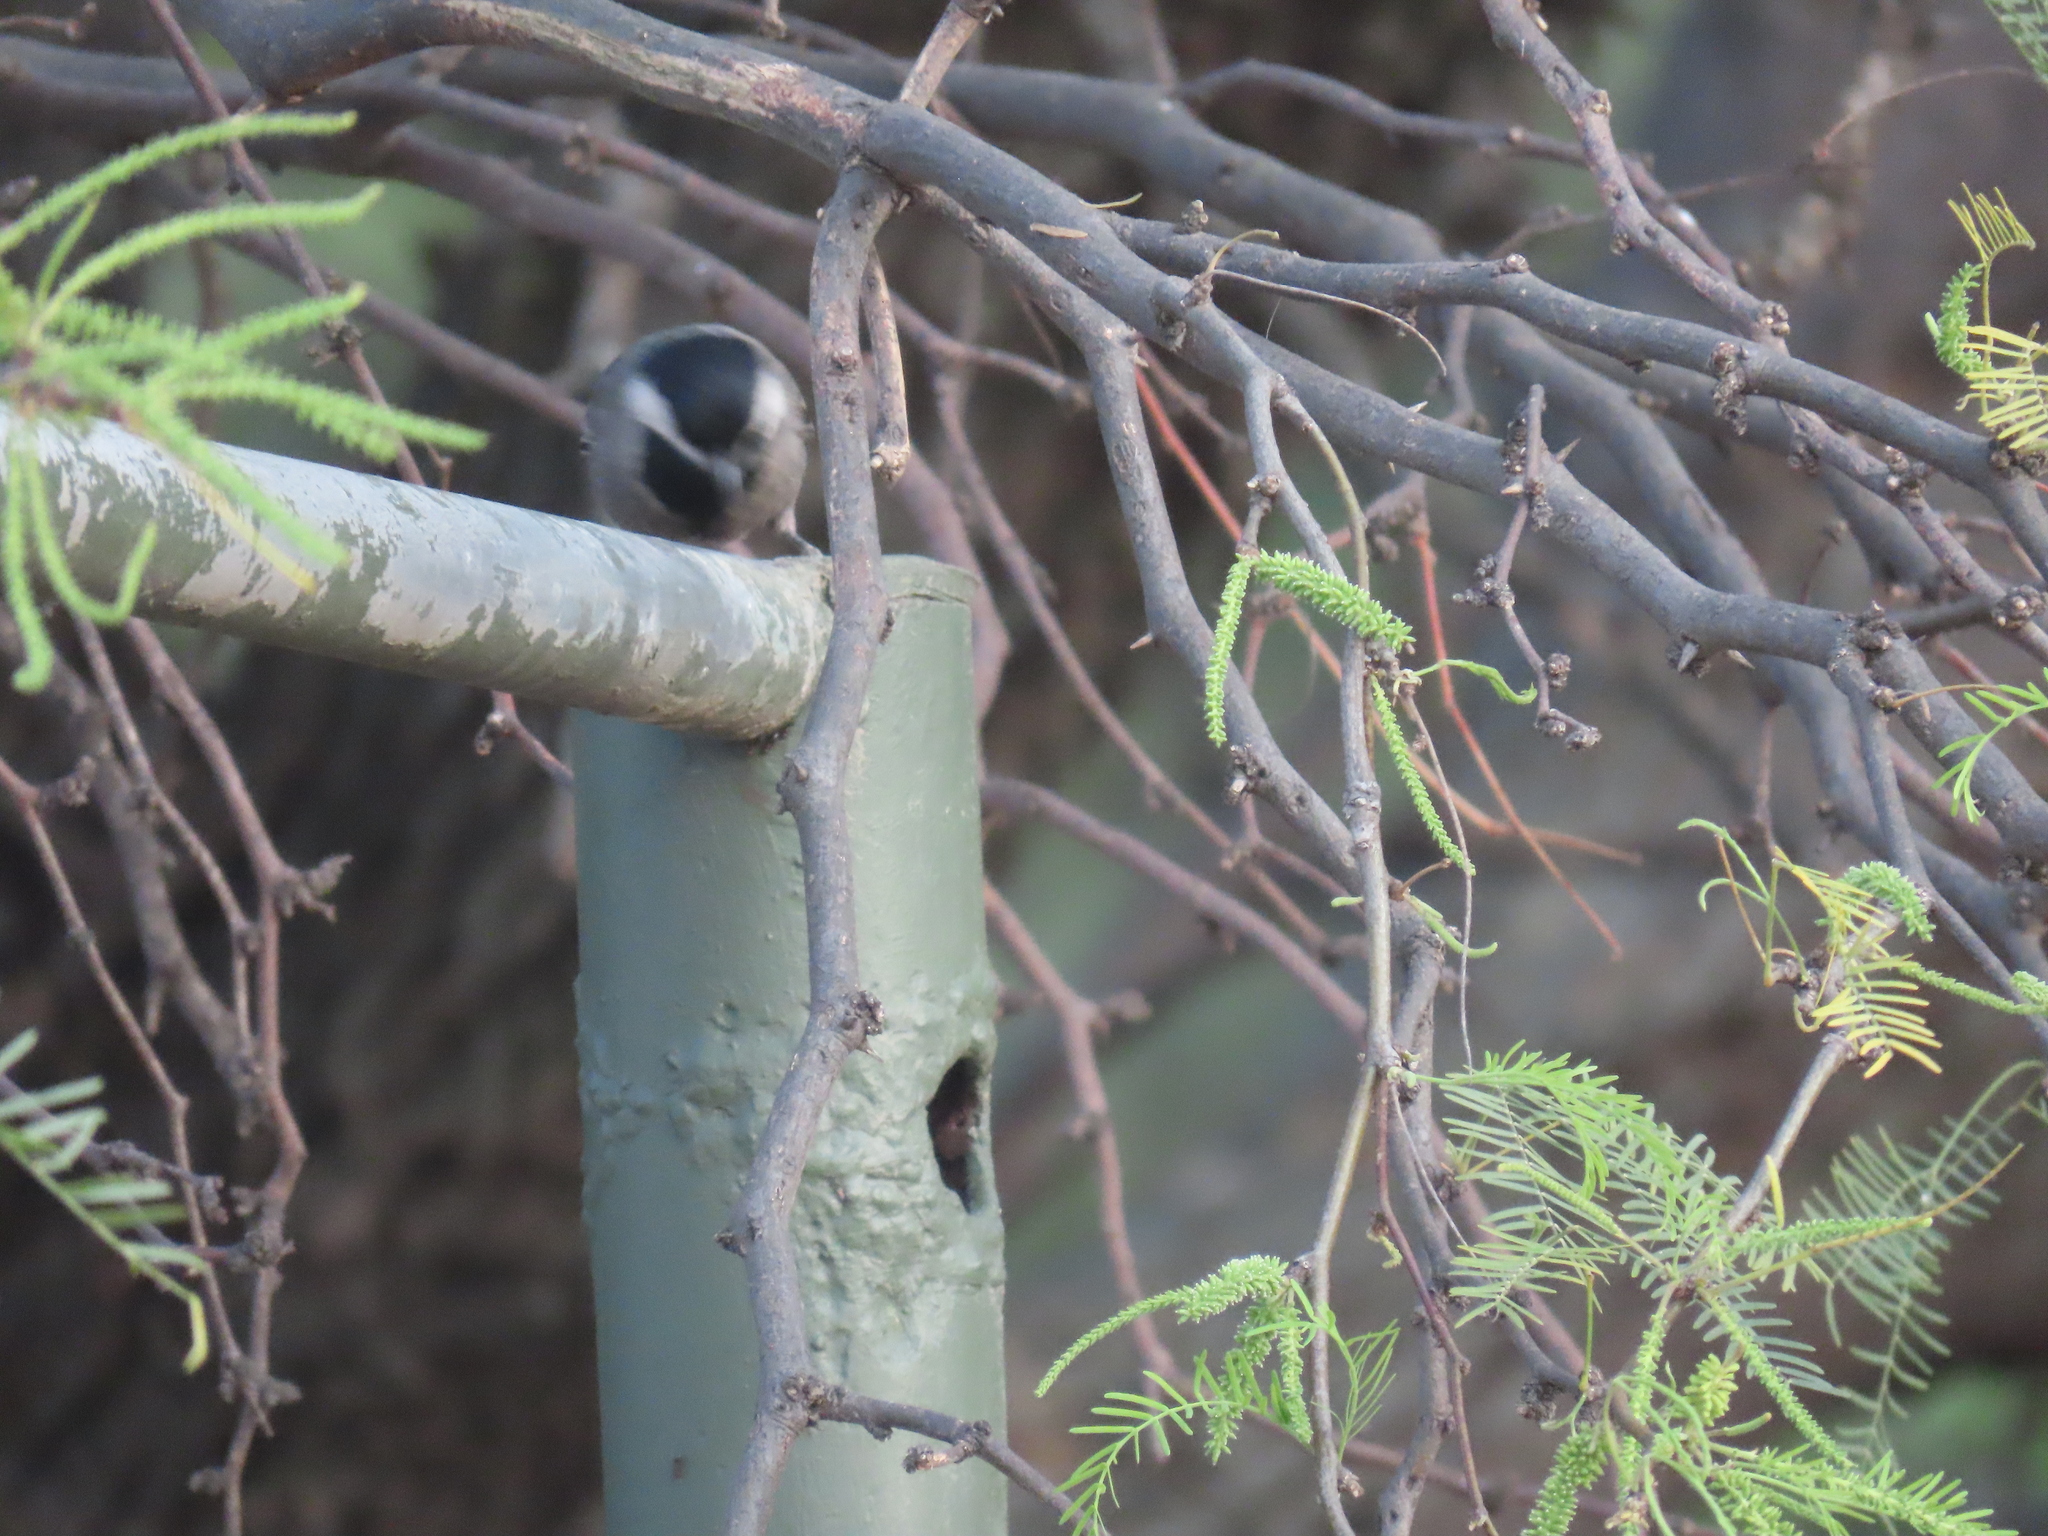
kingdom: Animalia
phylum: Chordata
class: Aves
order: Passeriformes
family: Paridae
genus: Parus
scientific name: Parus cinerascens
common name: Ashy tit
